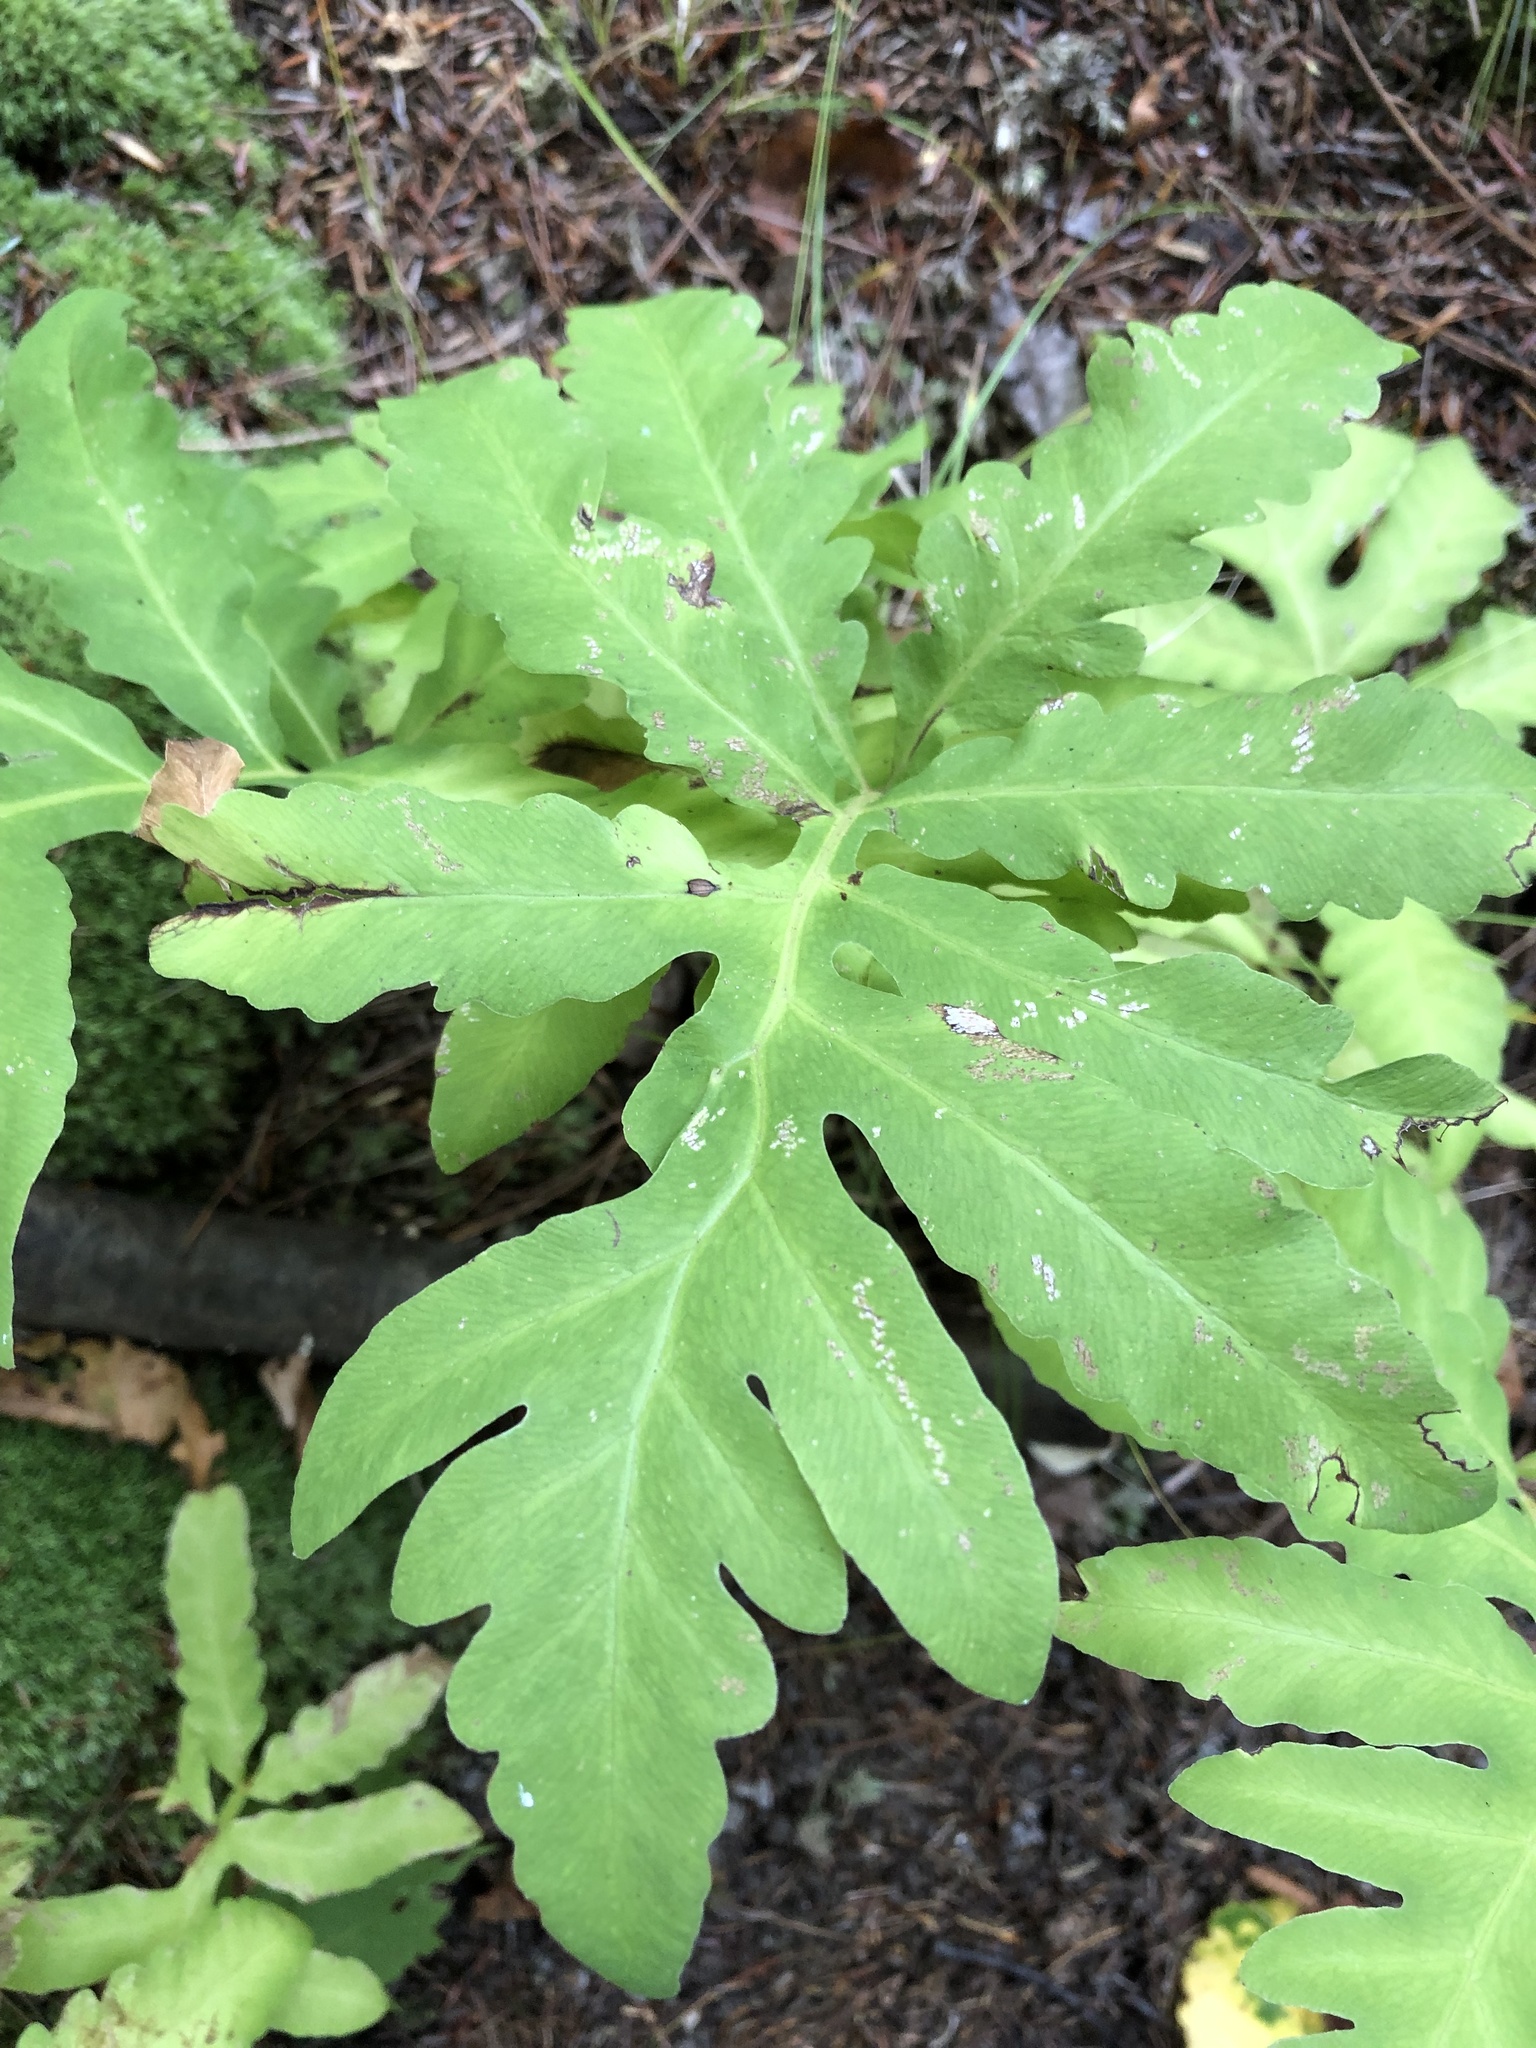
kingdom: Plantae
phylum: Tracheophyta
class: Polypodiopsida
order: Polypodiales
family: Onocleaceae
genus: Onoclea
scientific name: Onoclea sensibilis
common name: Sensitive fern
